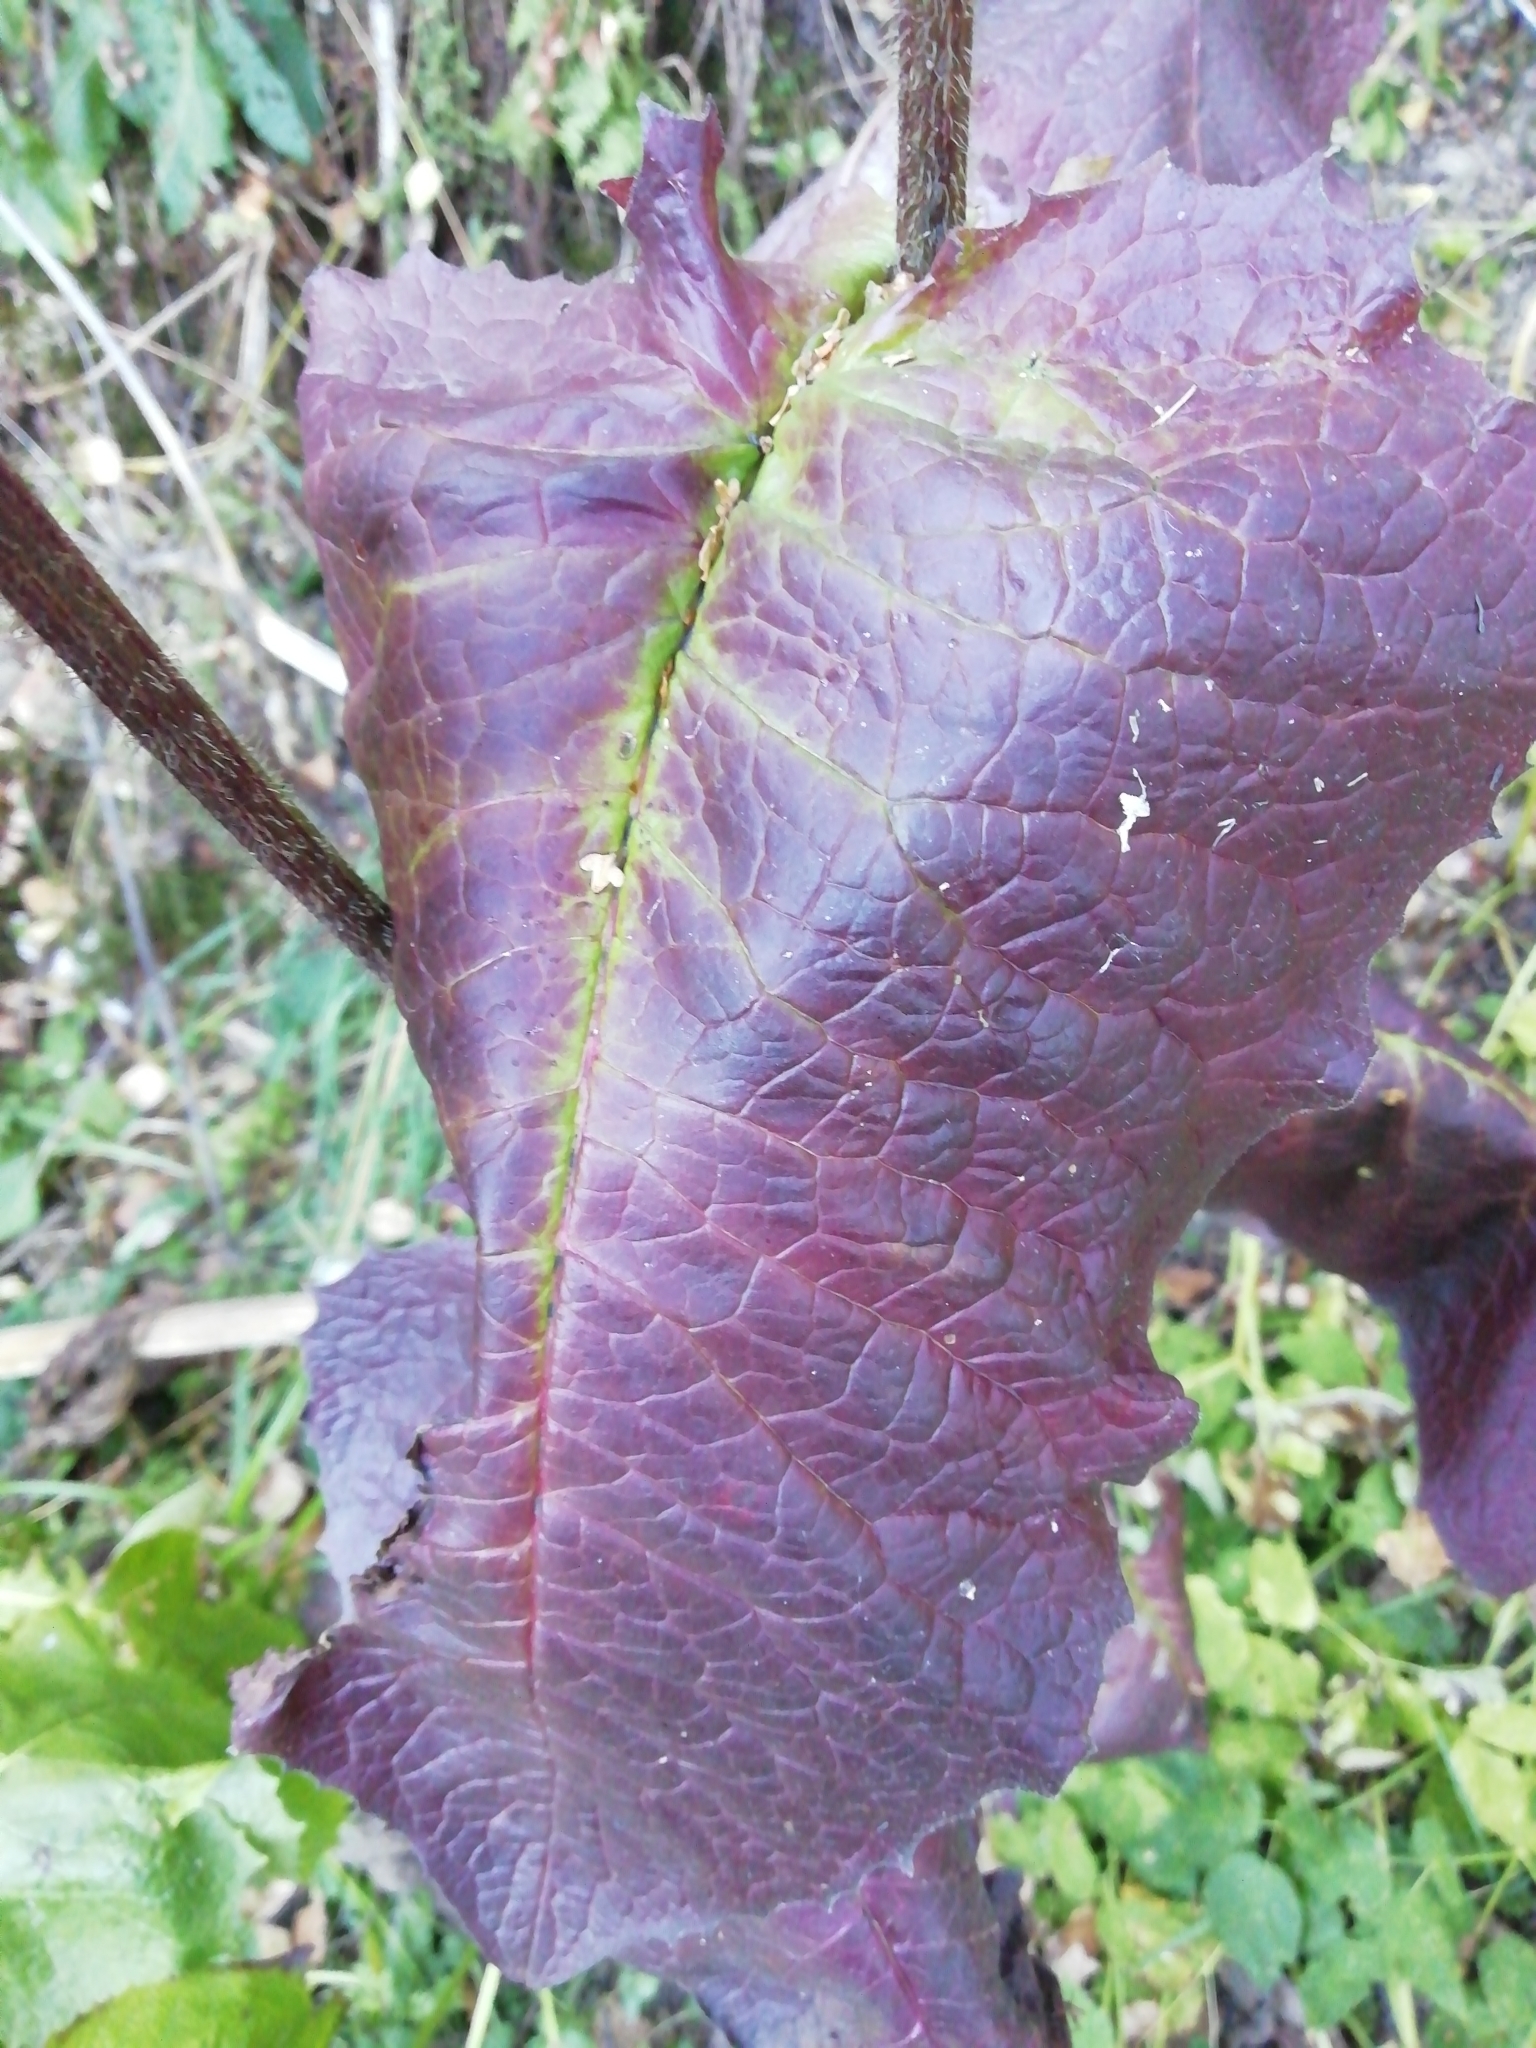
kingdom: Plantae
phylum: Tracheophyta
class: Magnoliopsida
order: Asterales
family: Asteraceae
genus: Crepis
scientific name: Crepis sibirica
